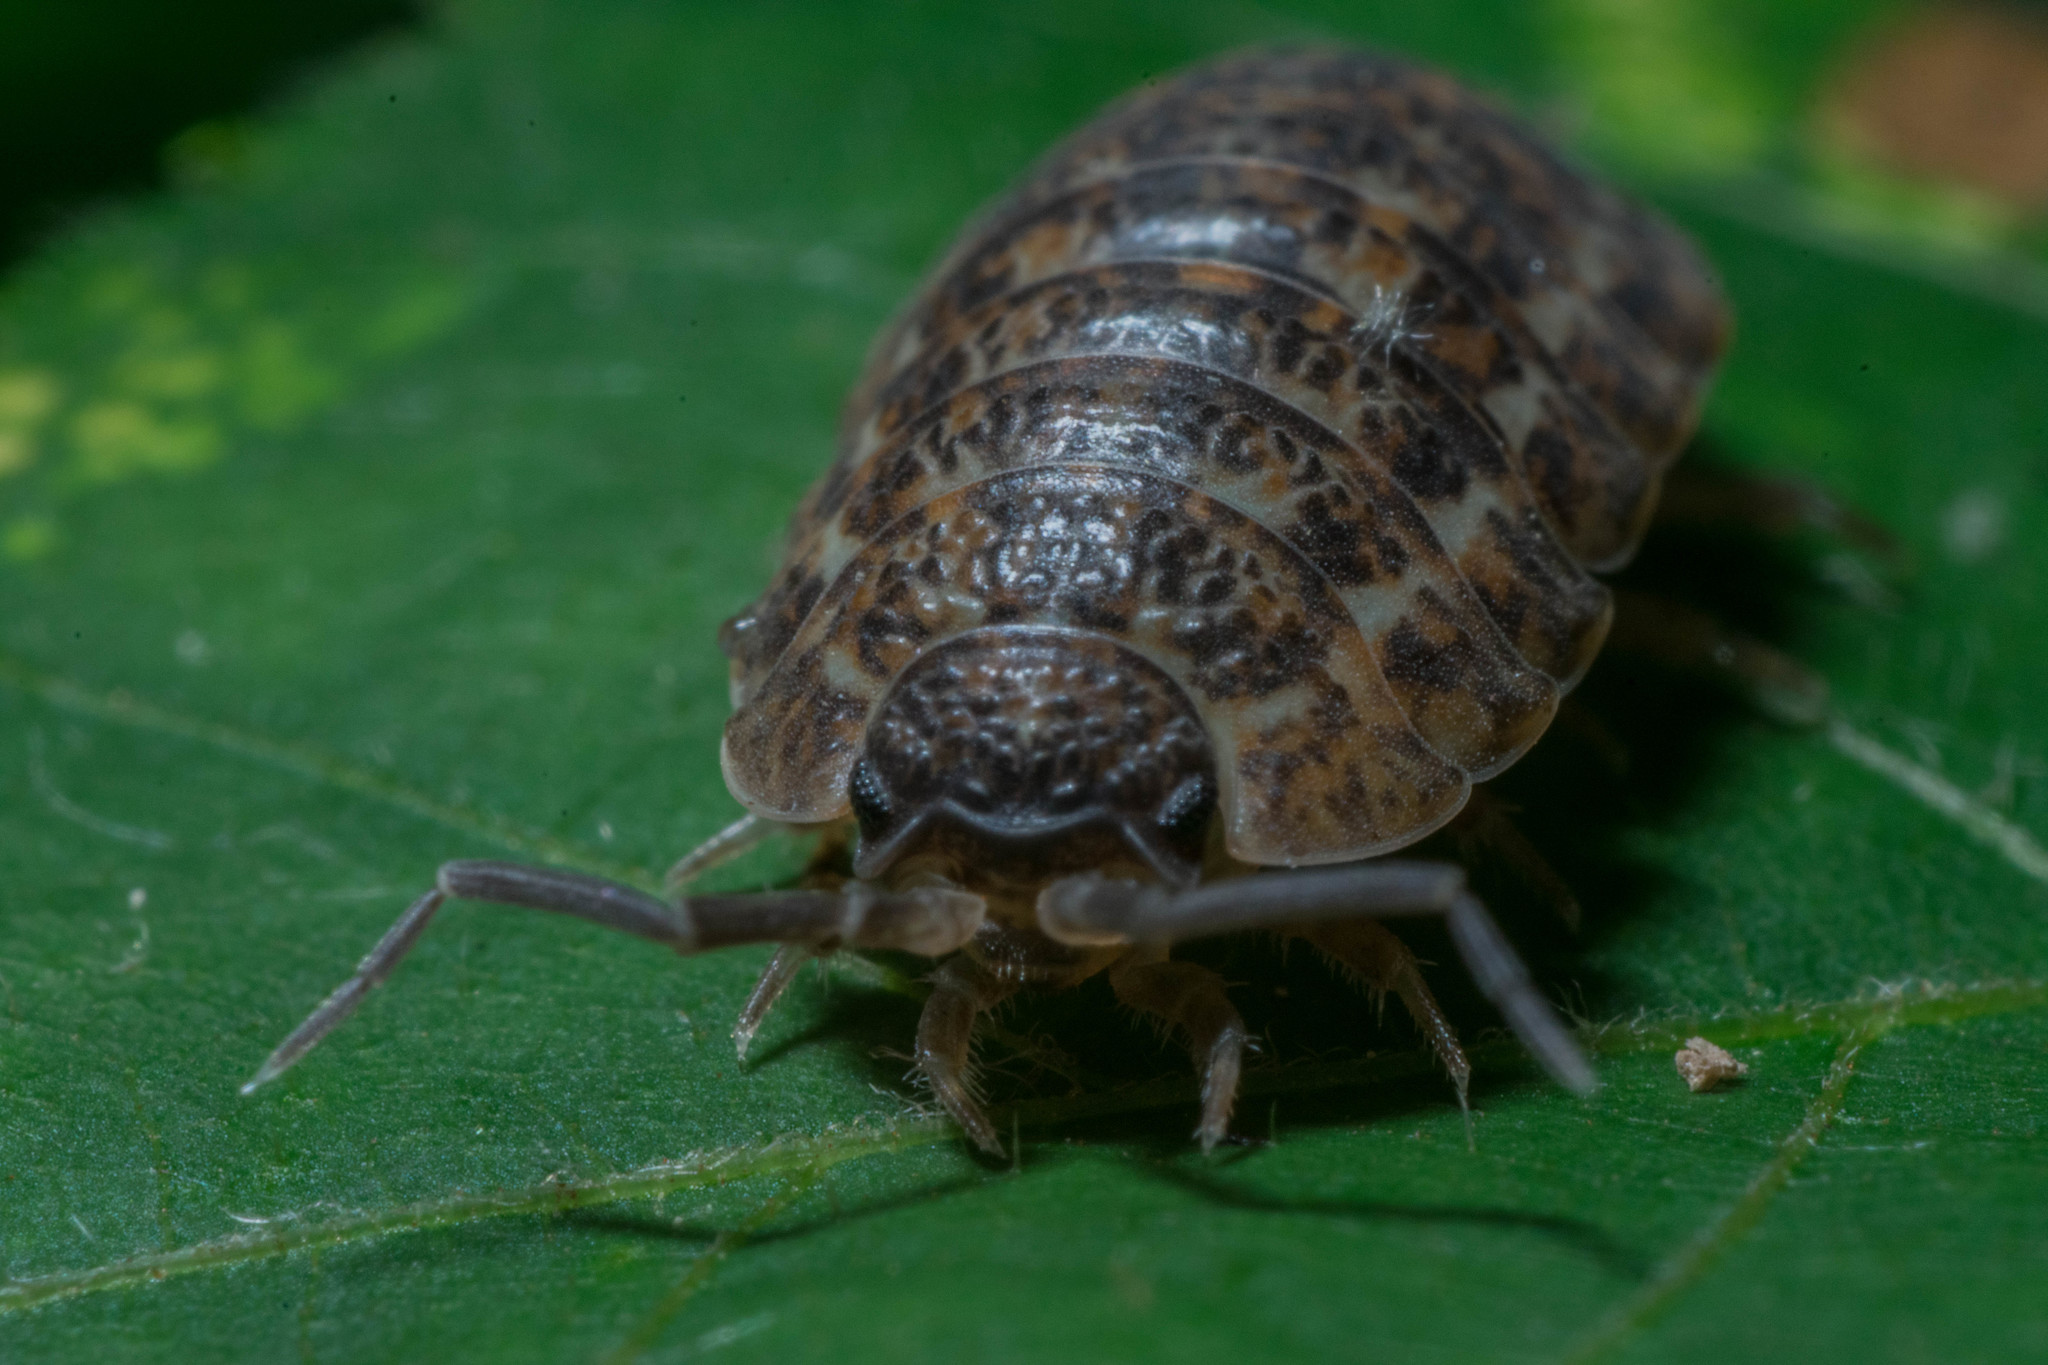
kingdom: Animalia
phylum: Arthropoda
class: Malacostraca
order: Isopoda
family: Trachelipodidae
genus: Trachelipus
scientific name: Trachelipus rathkii
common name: Isopod
